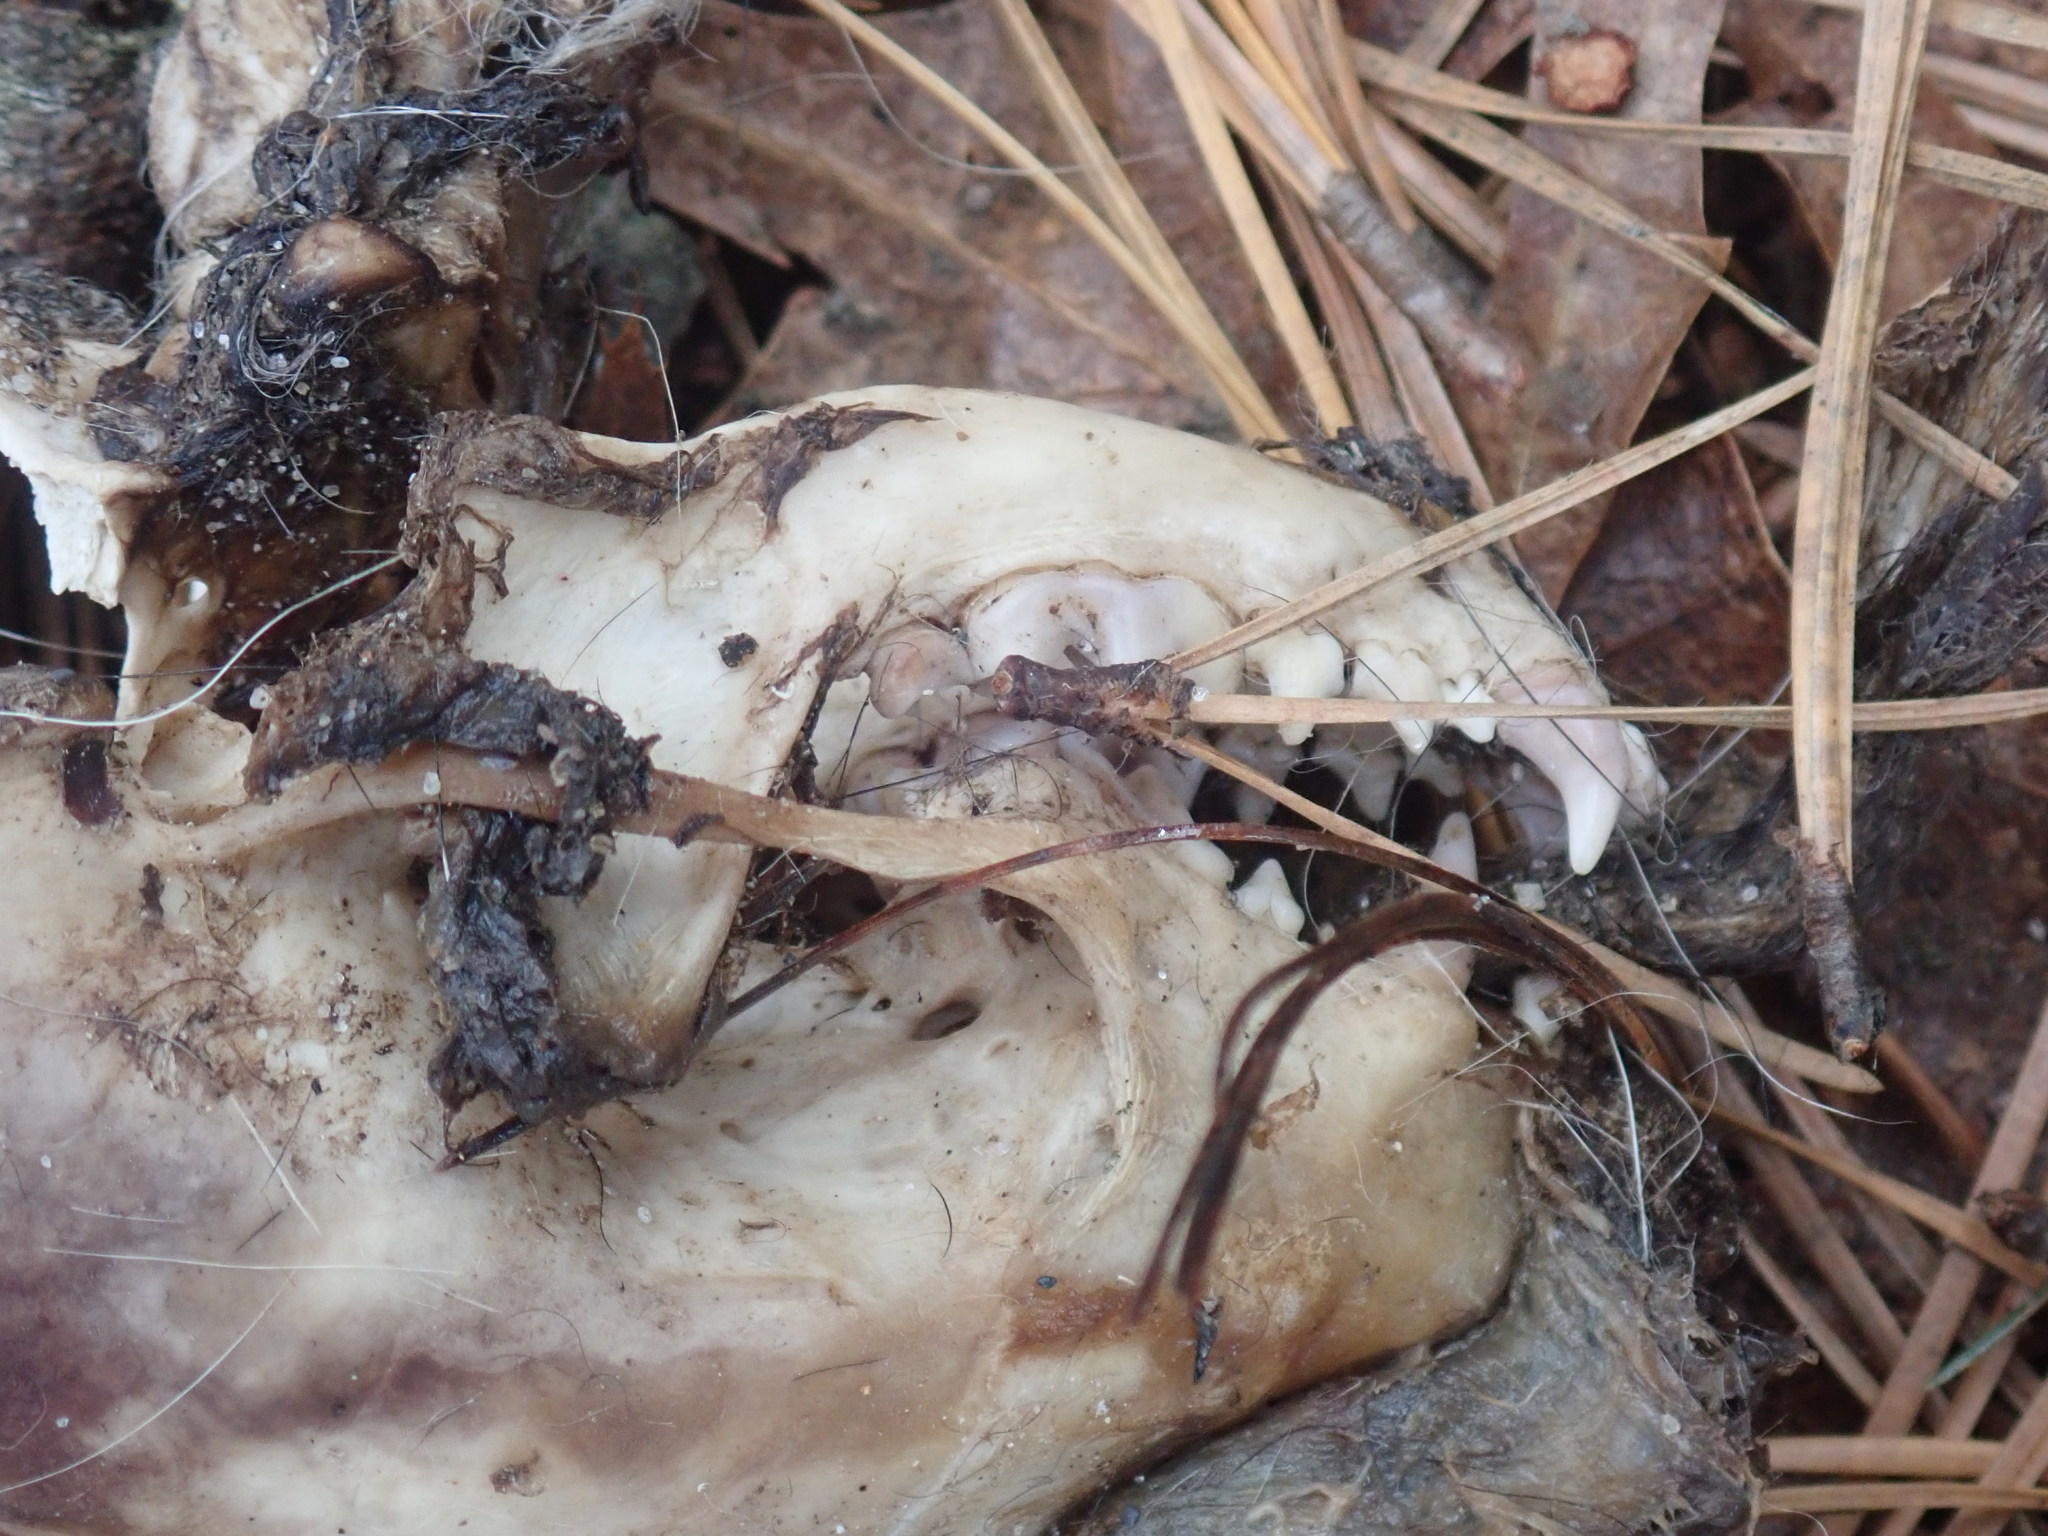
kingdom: Animalia
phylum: Chordata
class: Mammalia
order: Carnivora
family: Mephitidae
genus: Mephitis
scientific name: Mephitis mephitis
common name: Striped skunk
